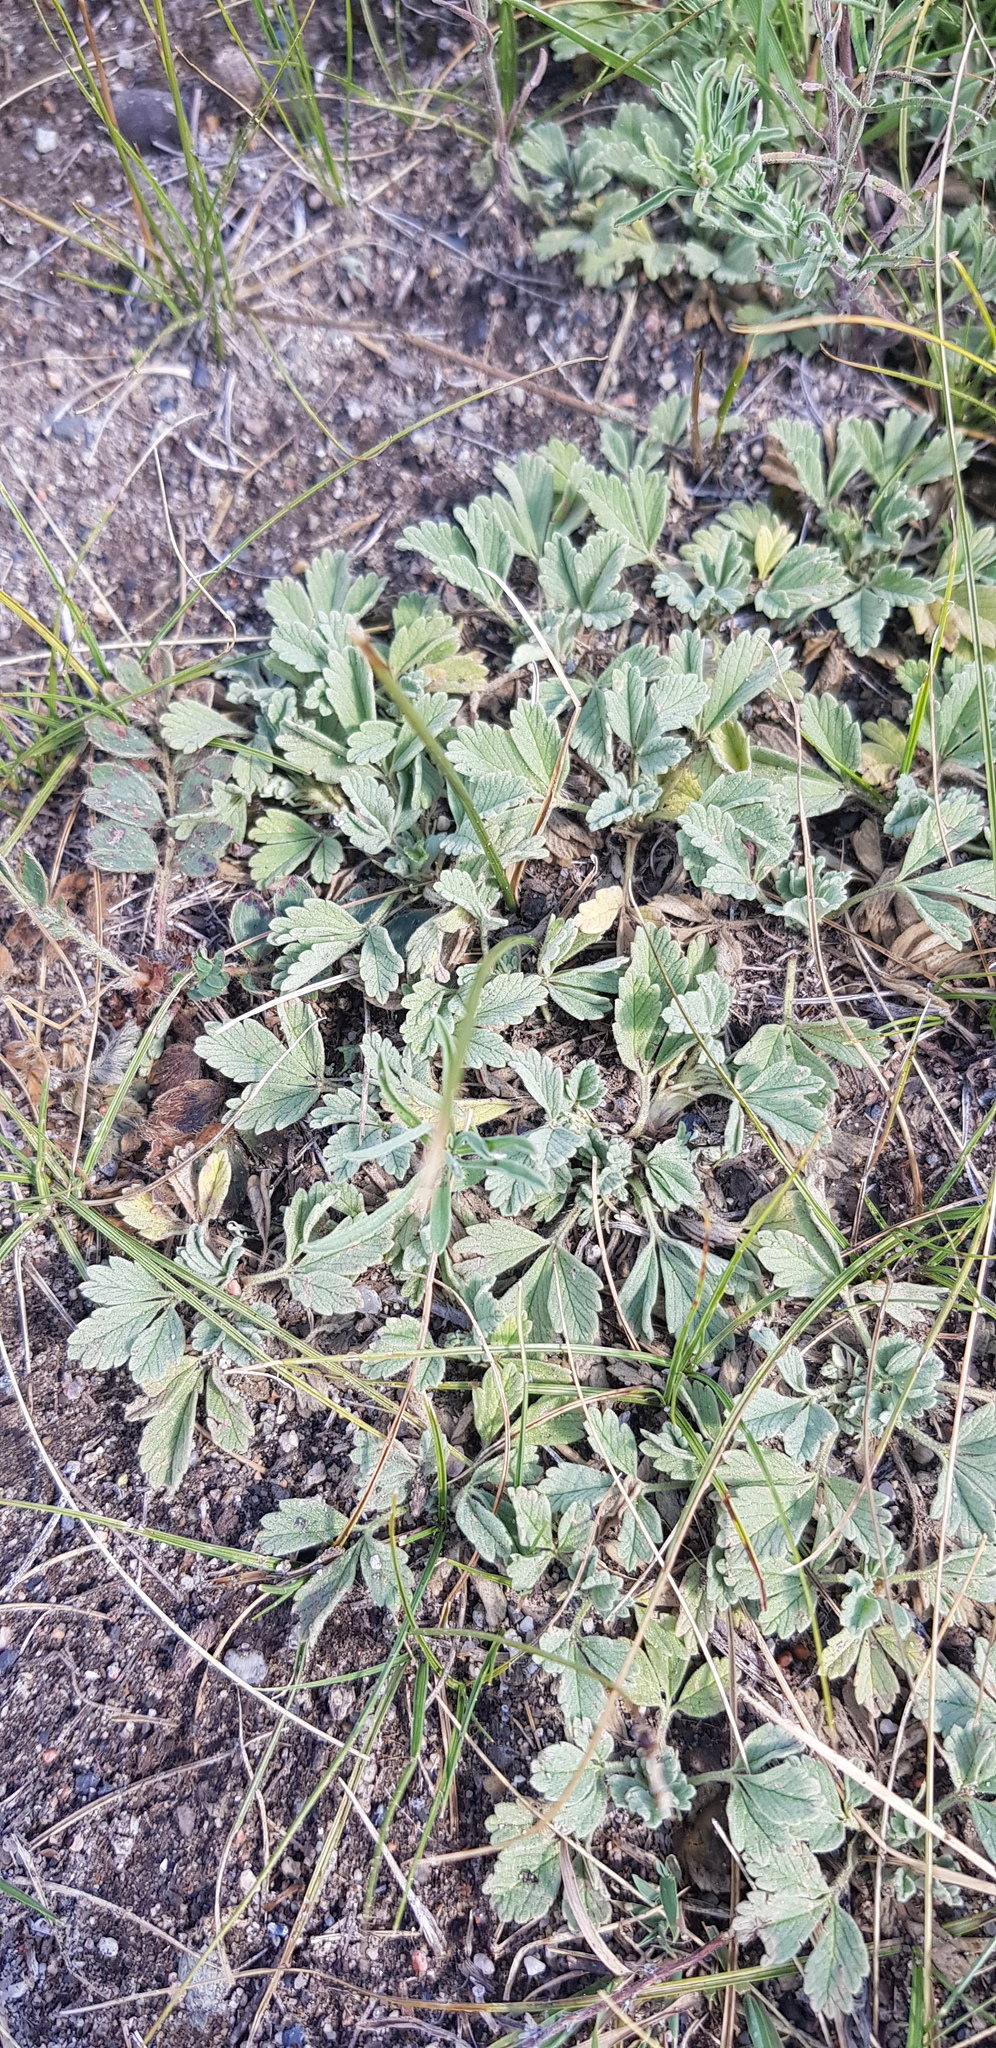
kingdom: Plantae
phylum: Tracheophyta
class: Magnoliopsida
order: Rosales
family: Rosaceae
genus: Potentilla
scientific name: Potentilla acaulis
